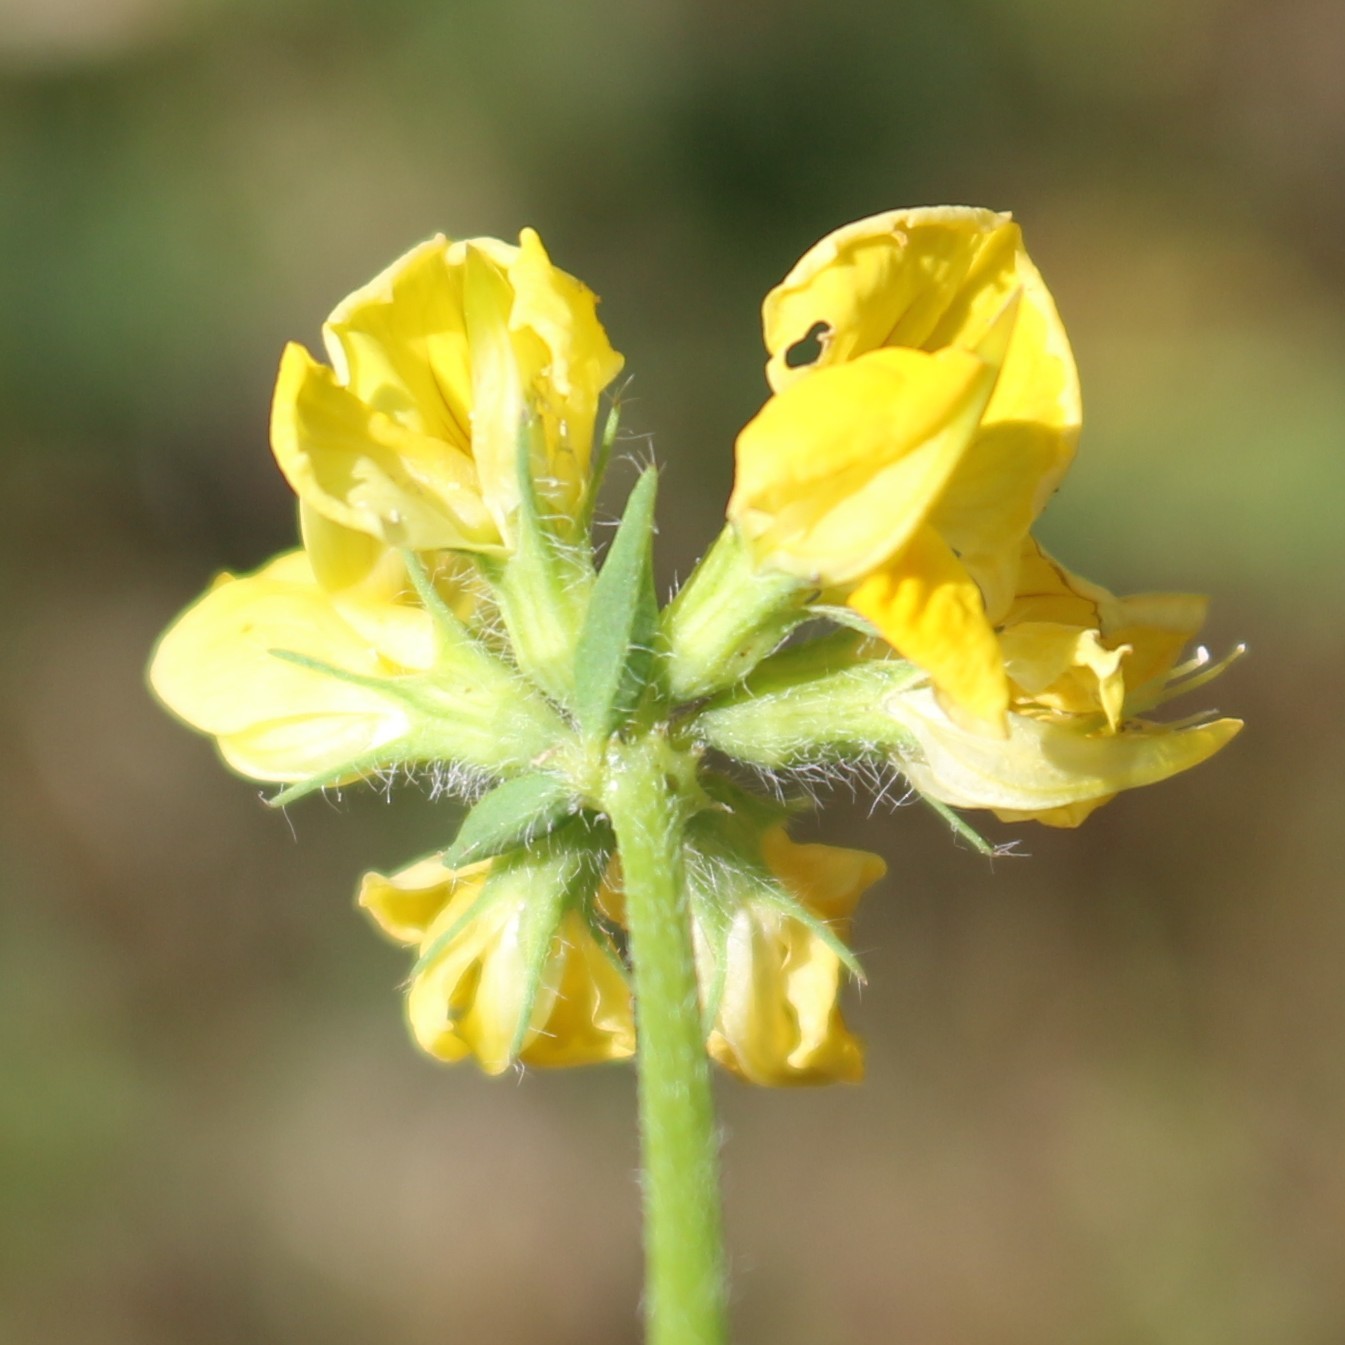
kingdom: Plantae
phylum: Tracheophyta
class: Magnoliopsida
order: Fabales
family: Fabaceae
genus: Lotus
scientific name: Lotus corniculatus
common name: Common bird's-foot-trefoil
